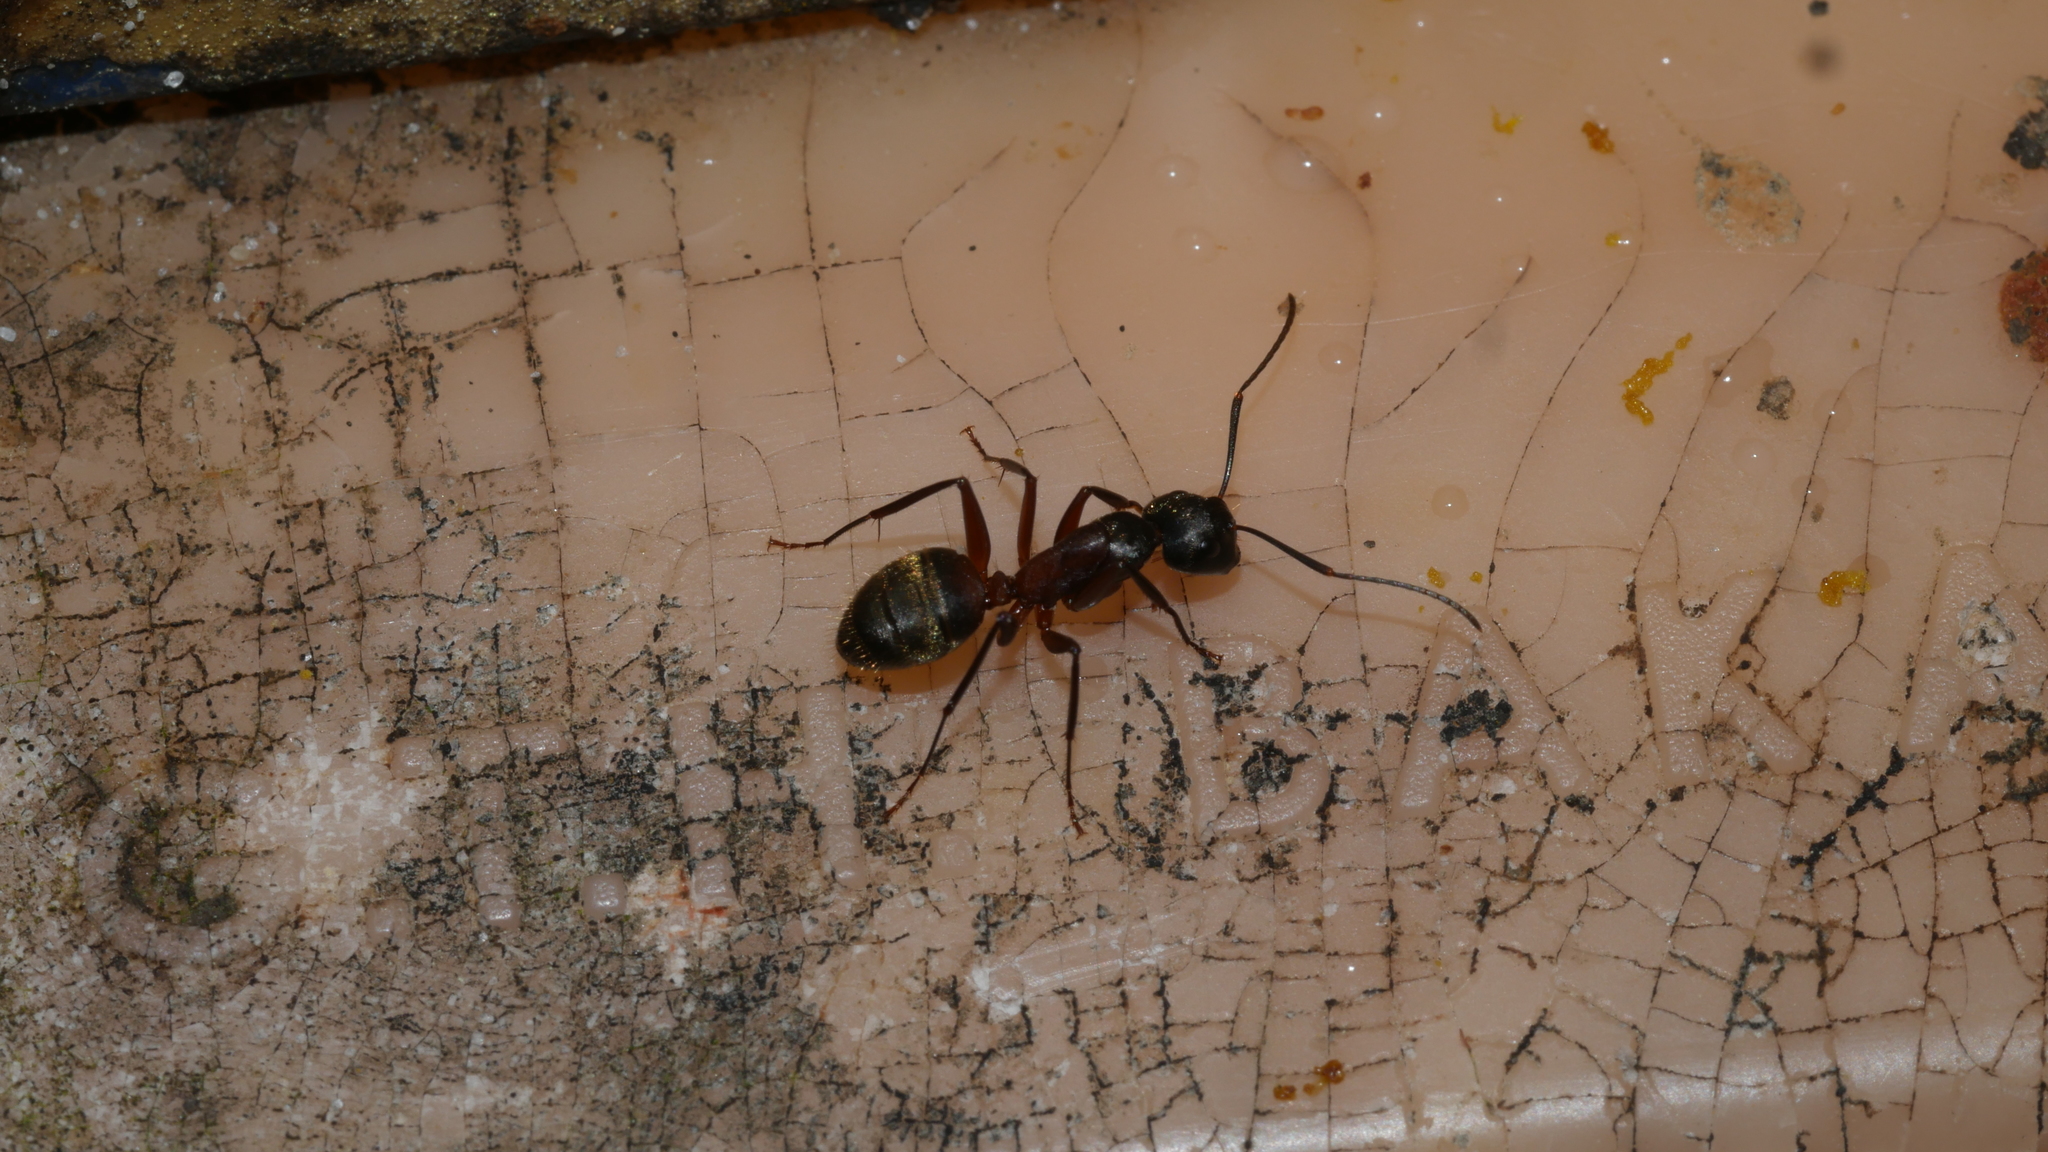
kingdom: Animalia
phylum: Arthropoda
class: Insecta
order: Hymenoptera
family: Formicidae
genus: Camponotus
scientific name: Camponotus chromaiodes
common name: Red carpenter ant
